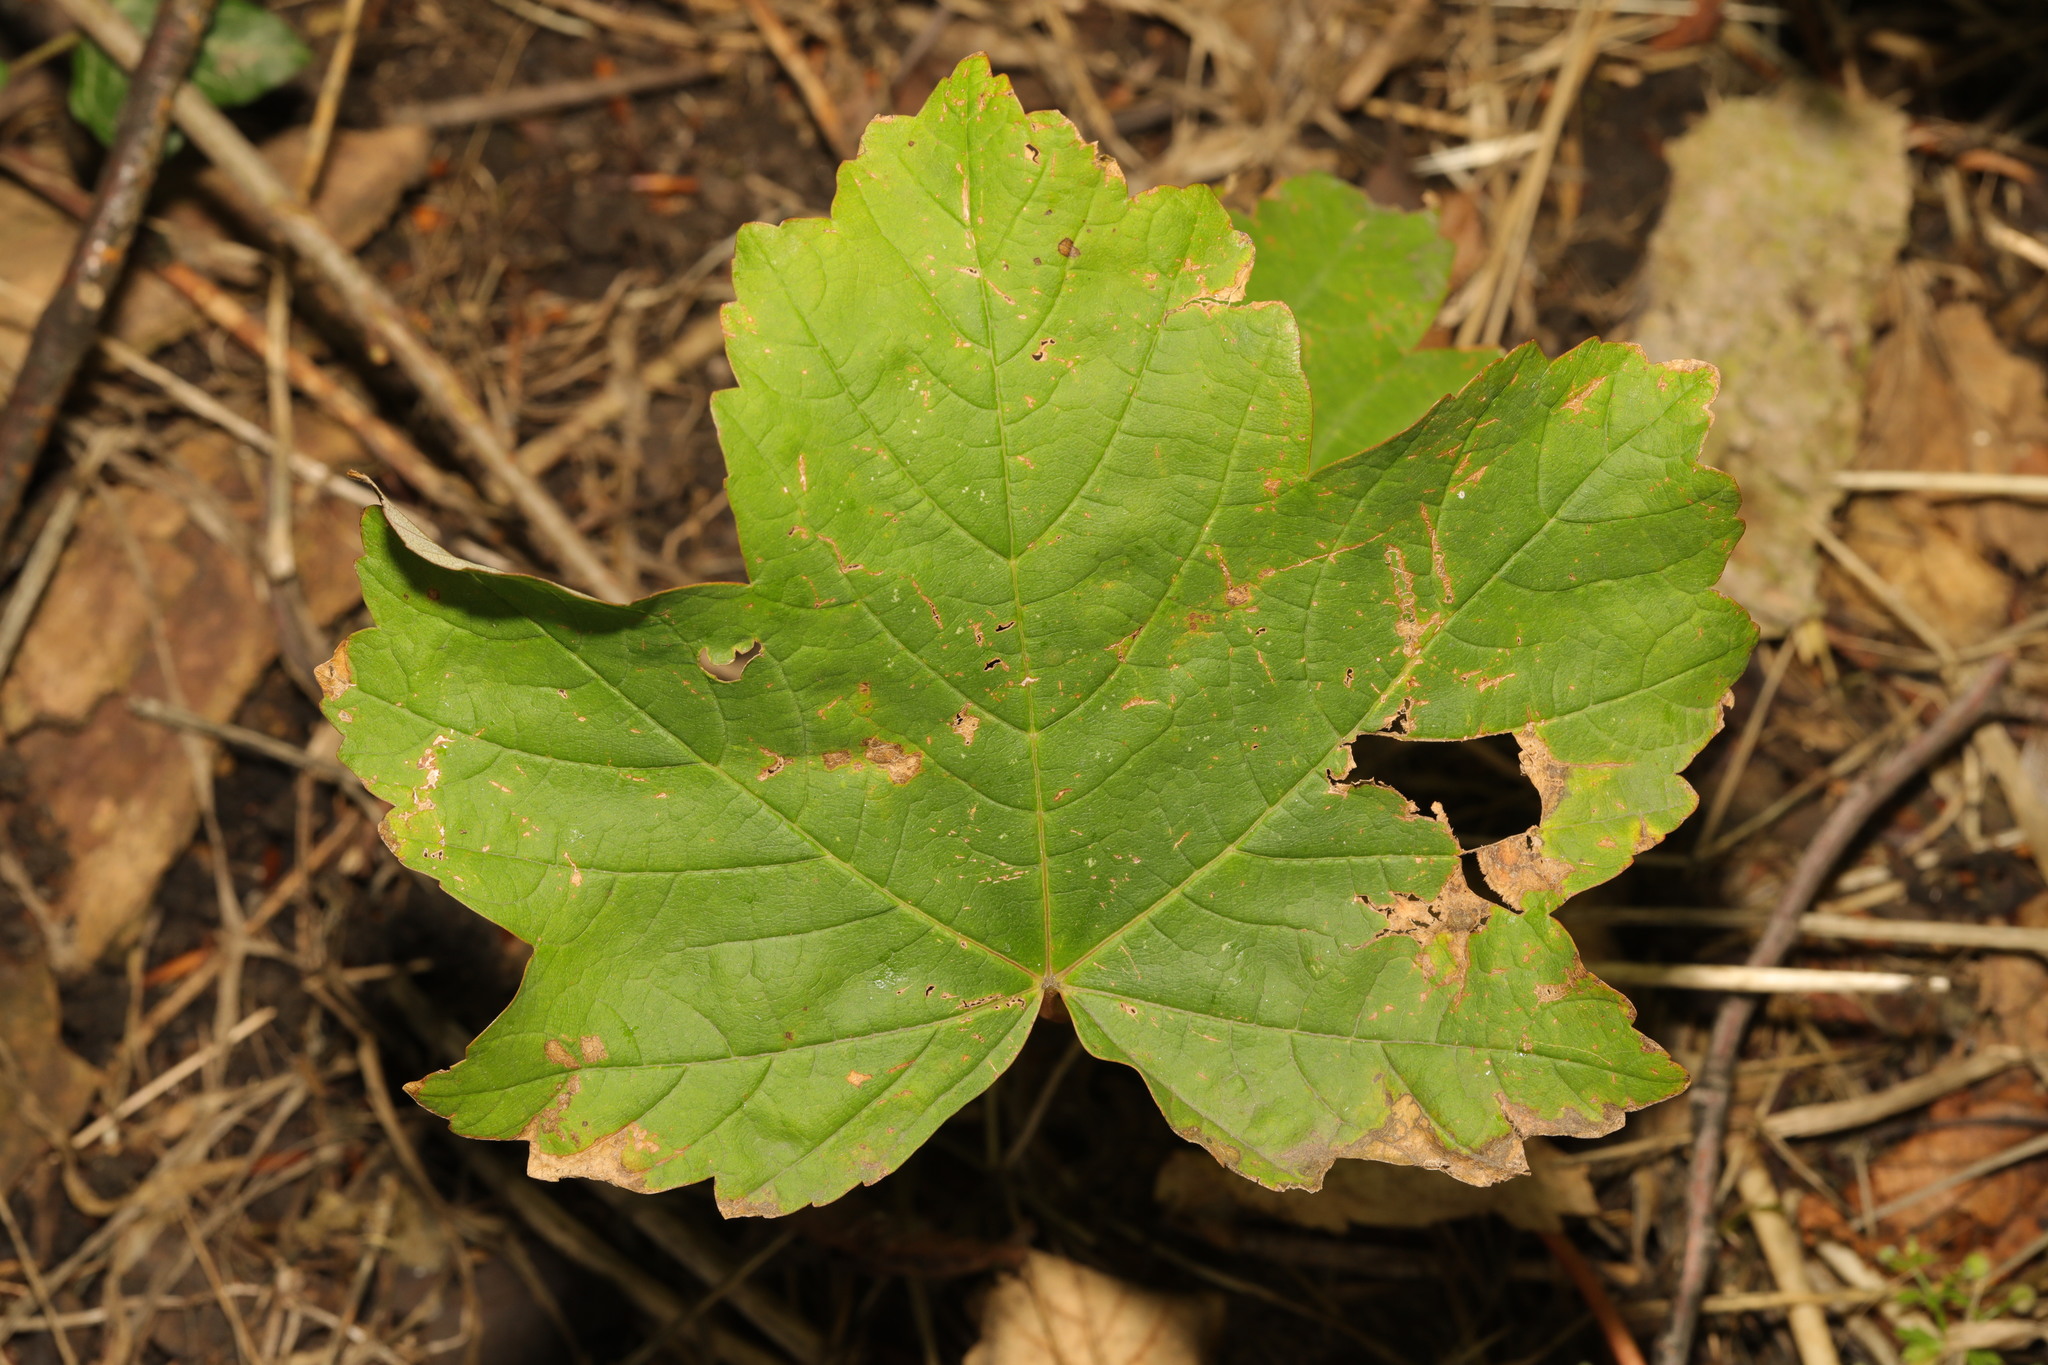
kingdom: Plantae
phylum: Tracheophyta
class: Magnoliopsida
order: Sapindales
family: Sapindaceae
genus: Acer
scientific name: Acer pseudoplatanus
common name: Sycamore
